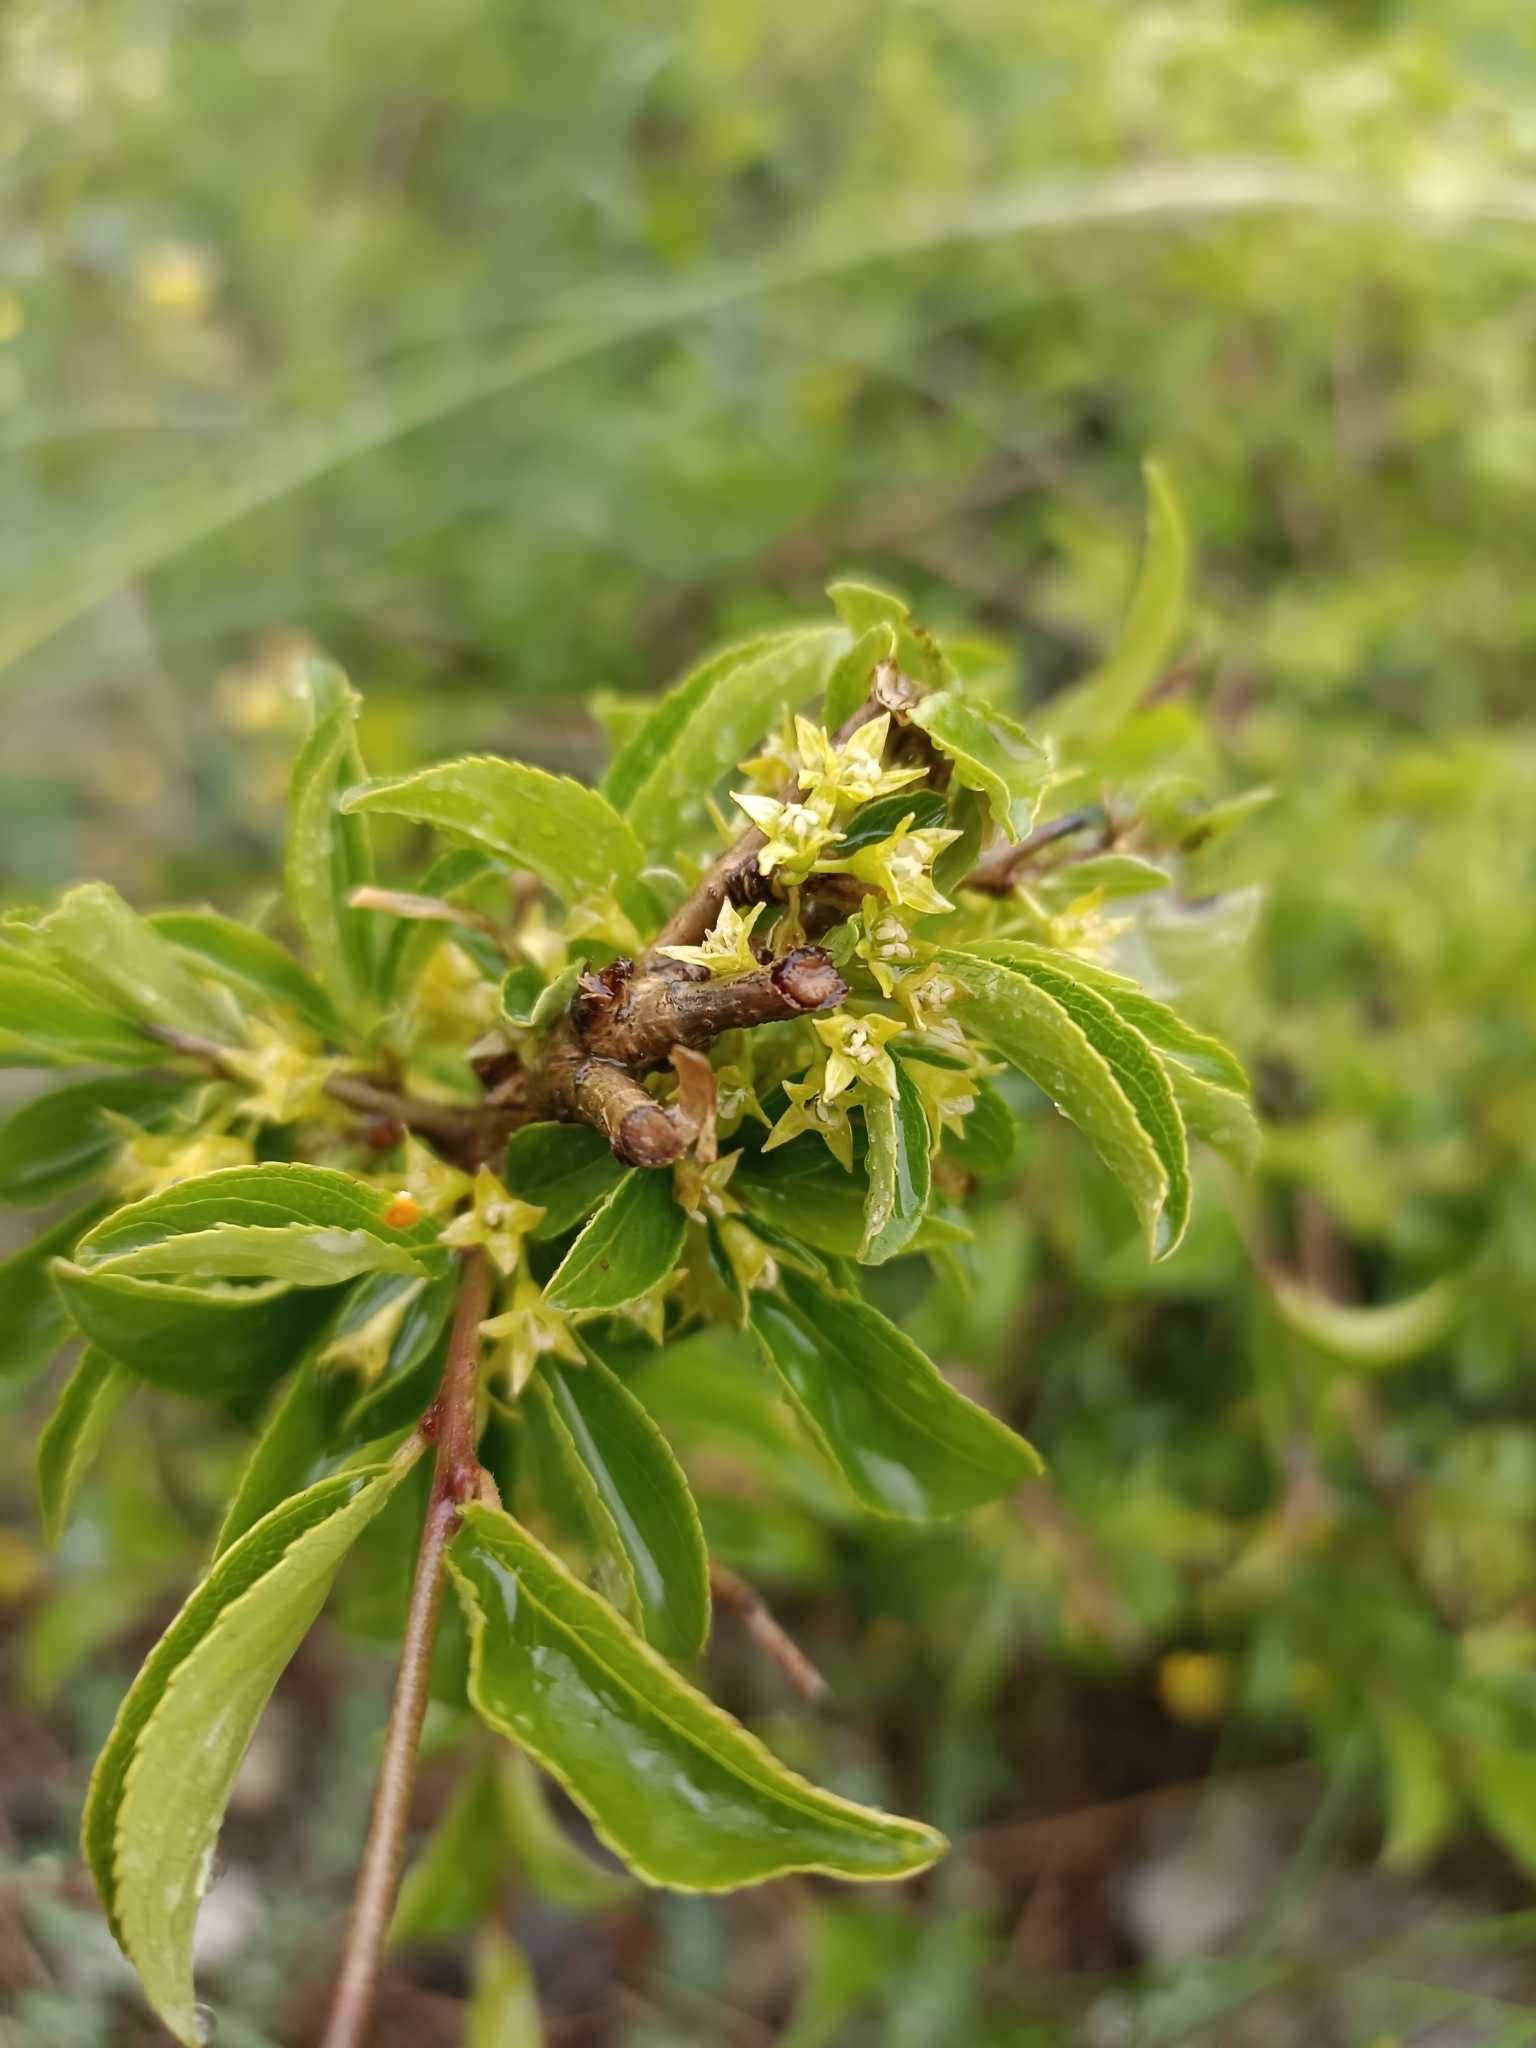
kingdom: Plantae
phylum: Tracheophyta
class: Magnoliopsida
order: Rosales
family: Rhamnaceae
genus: Rhamnus
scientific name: Rhamnus saxatilis
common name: Rock buckthorn
